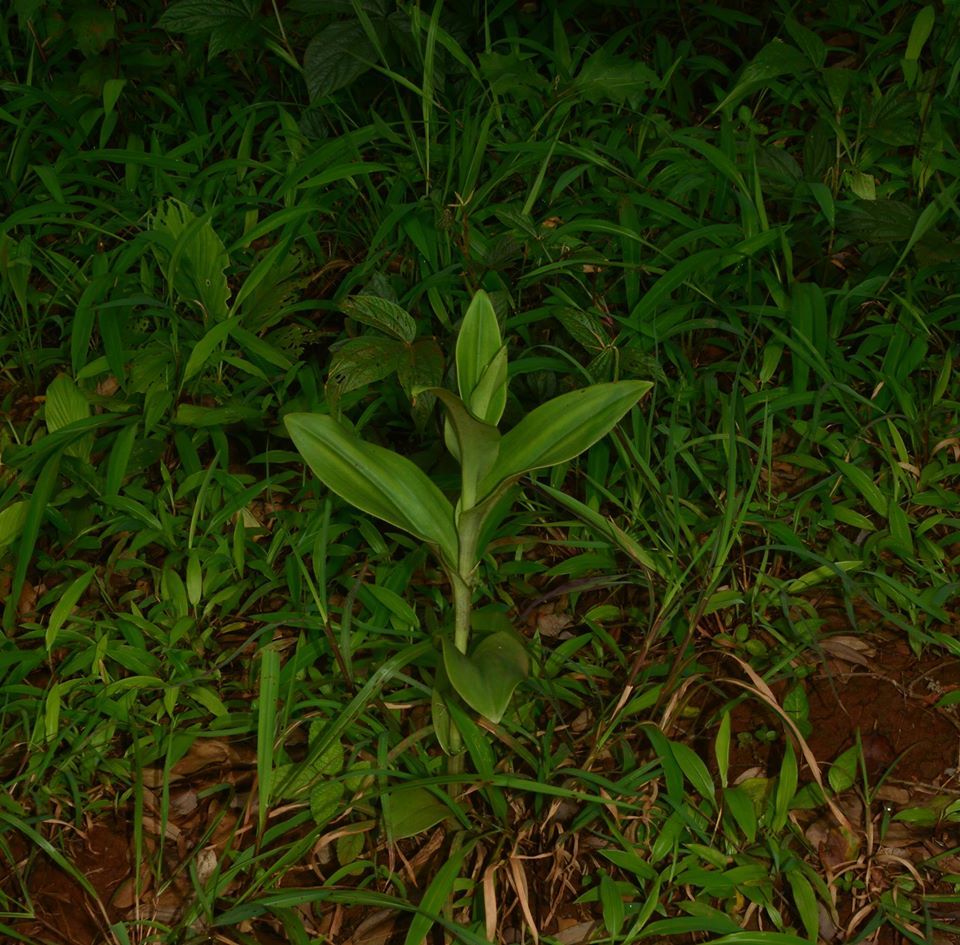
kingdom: Plantae
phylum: Tracheophyta
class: Liliopsida
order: Asparagales
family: Orchidaceae
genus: Pecteilis
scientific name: Pecteilis gigantea
